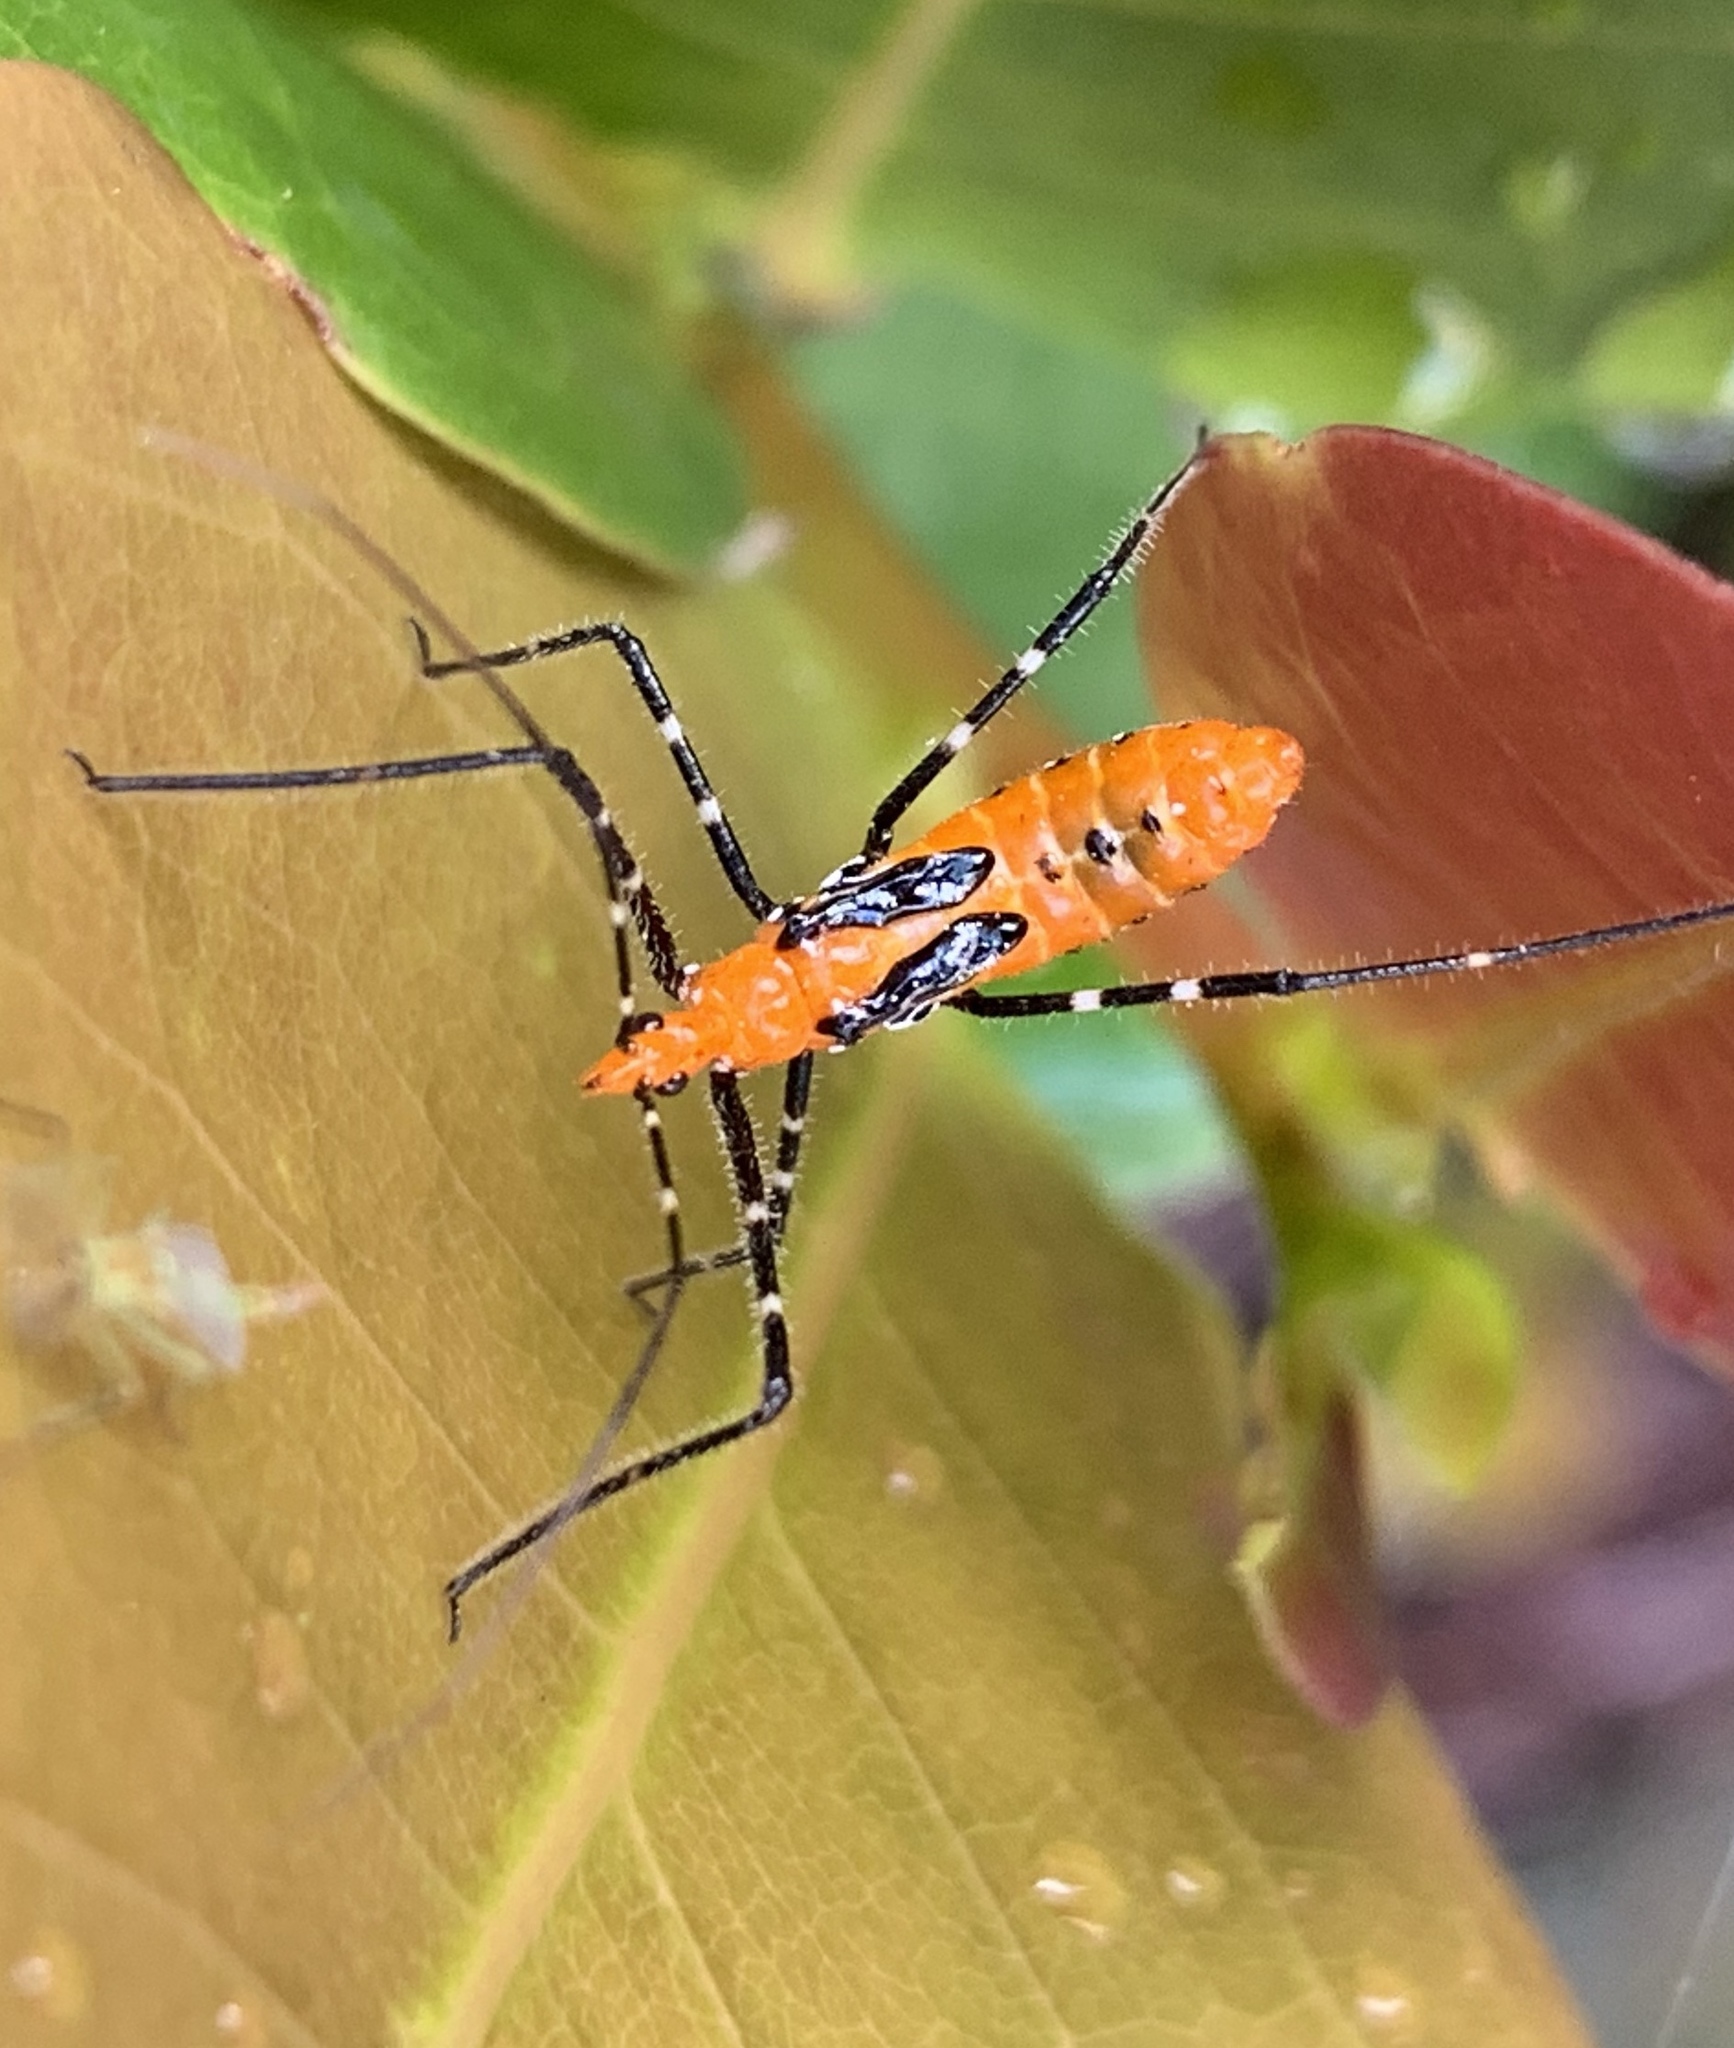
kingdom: Animalia
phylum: Arthropoda
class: Insecta
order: Hemiptera
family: Reduviidae
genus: Zelus
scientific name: Zelus longipes
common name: Milkweed assassin bug
